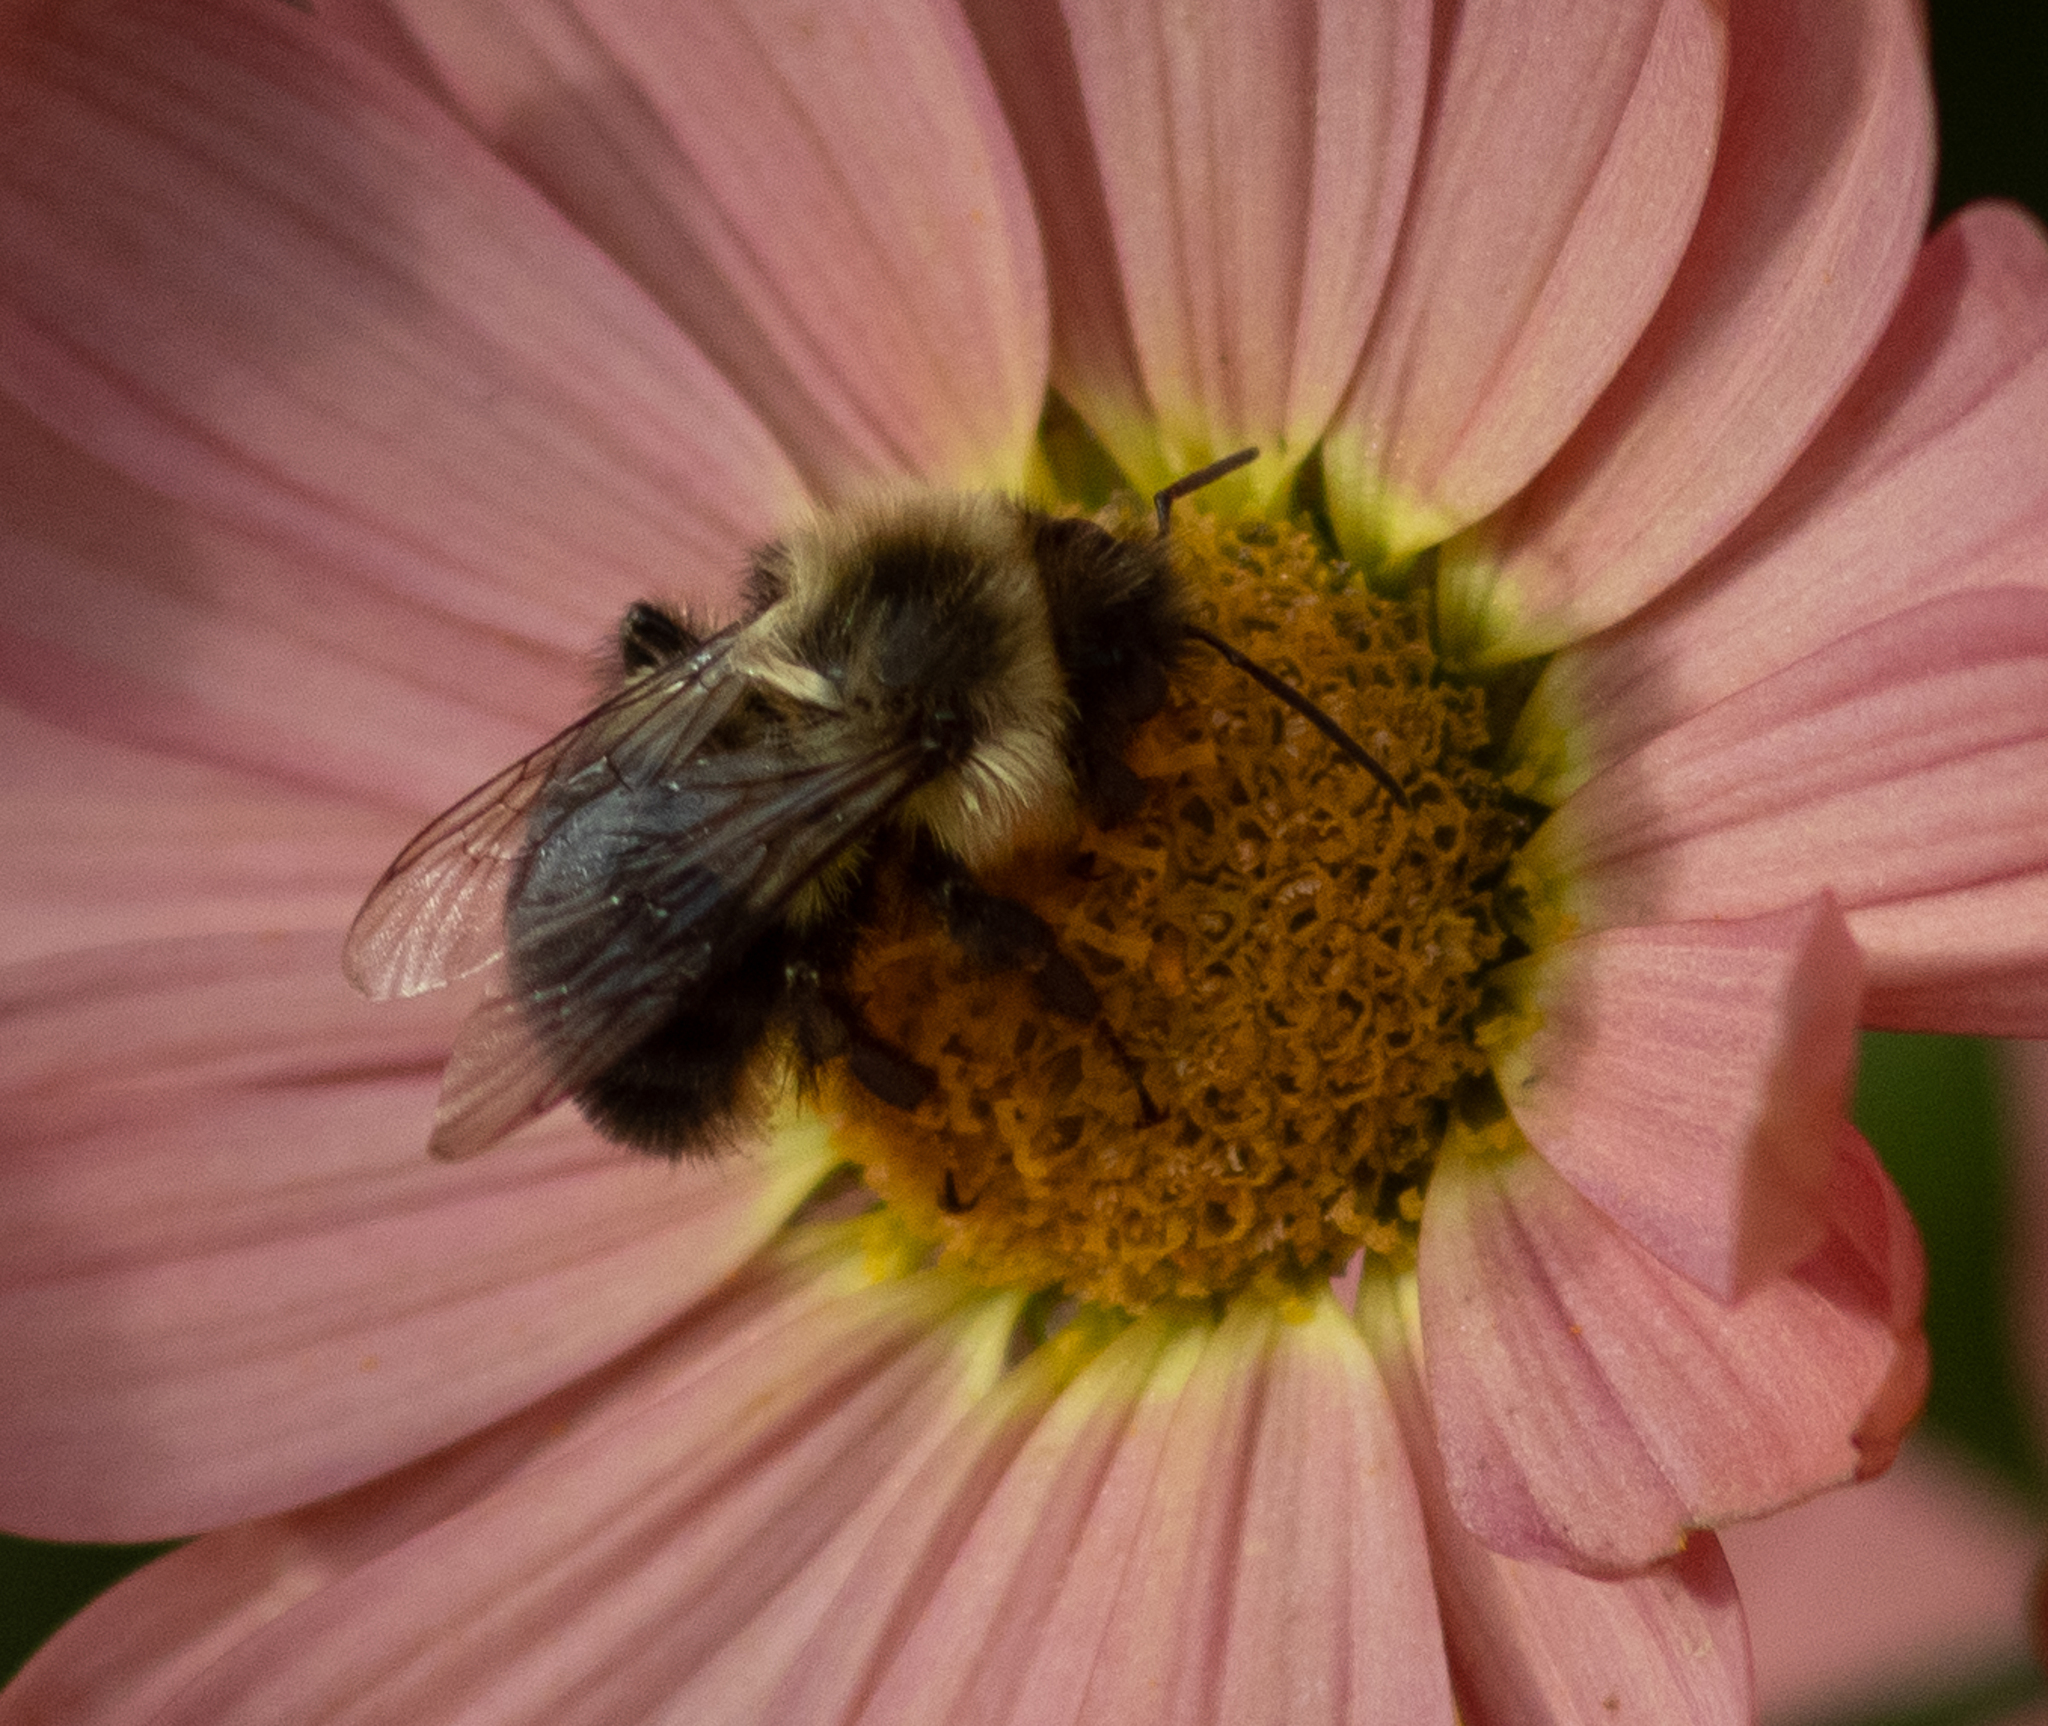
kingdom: Animalia
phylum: Arthropoda
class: Insecta
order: Hymenoptera
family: Apidae
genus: Bombus
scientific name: Bombus impatiens
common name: Common eastern bumble bee
